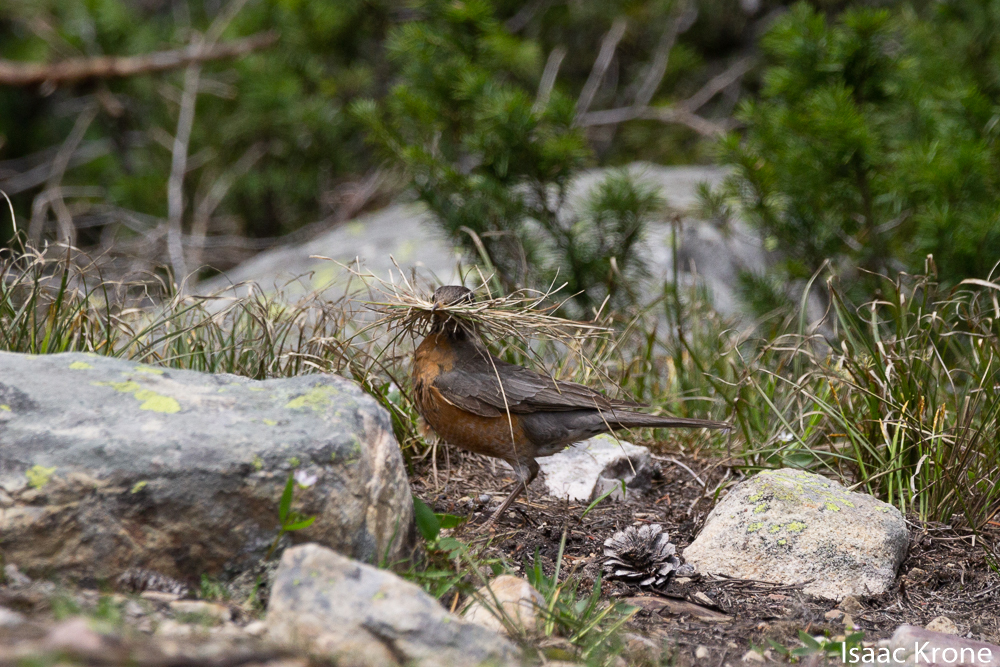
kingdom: Animalia
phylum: Chordata
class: Aves
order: Passeriformes
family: Turdidae
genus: Turdus
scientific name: Turdus migratorius
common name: American robin
